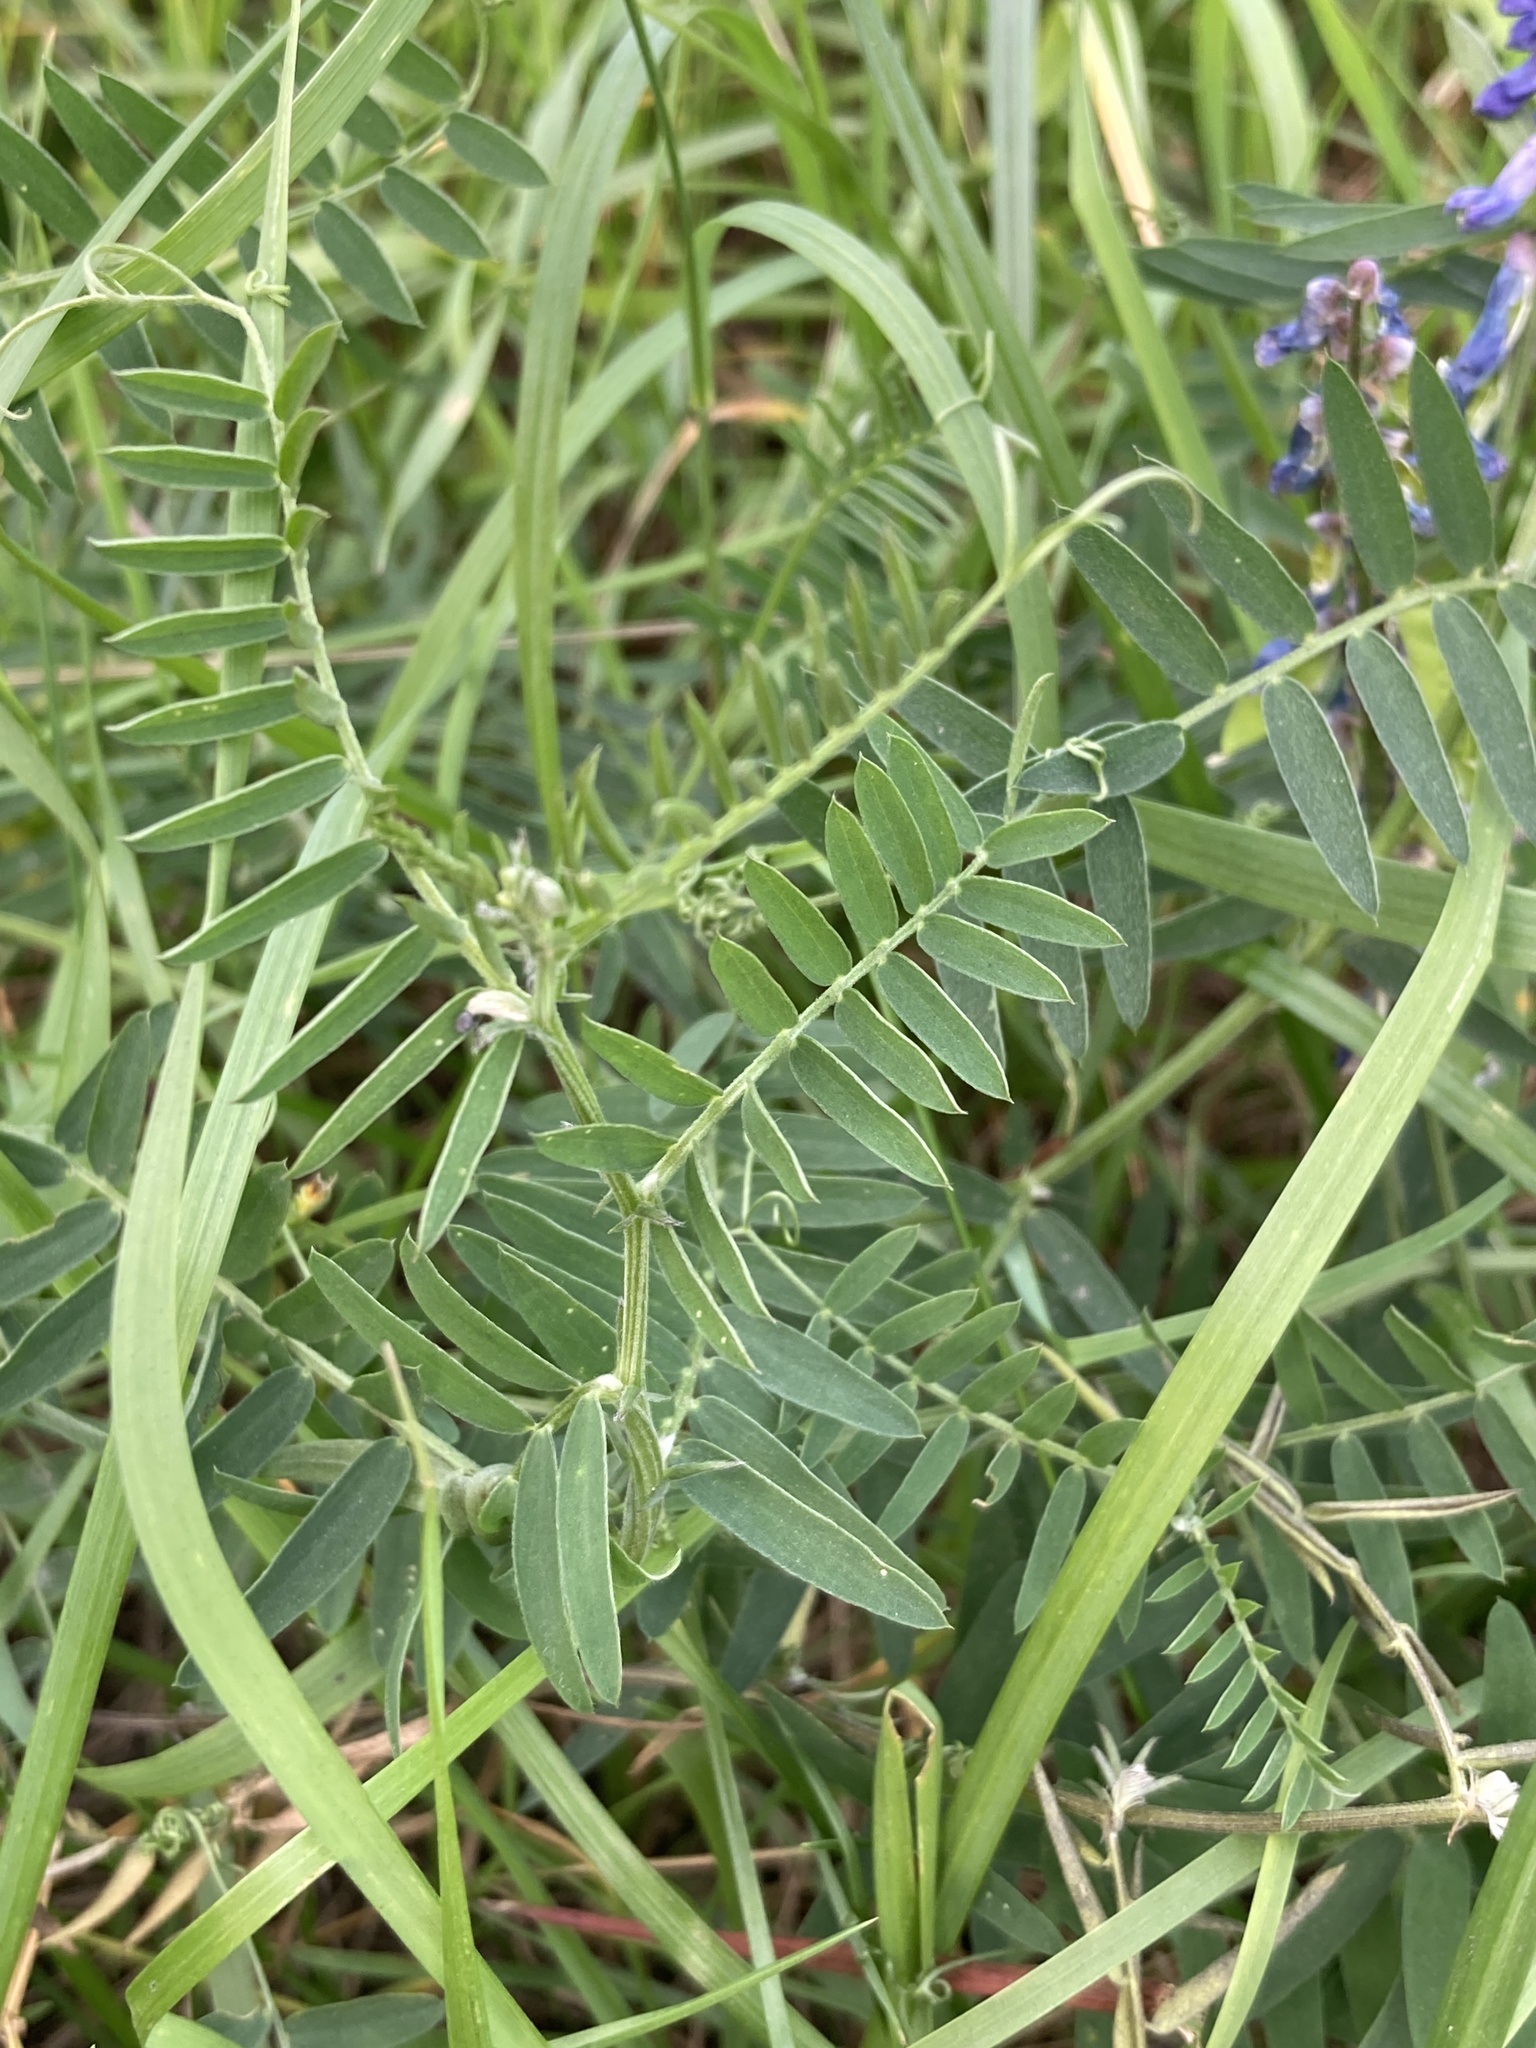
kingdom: Plantae
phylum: Tracheophyta
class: Magnoliopsida
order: Fabales
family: Fabaceae
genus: Vicia
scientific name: Vicia cracca
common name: Bird vetch
